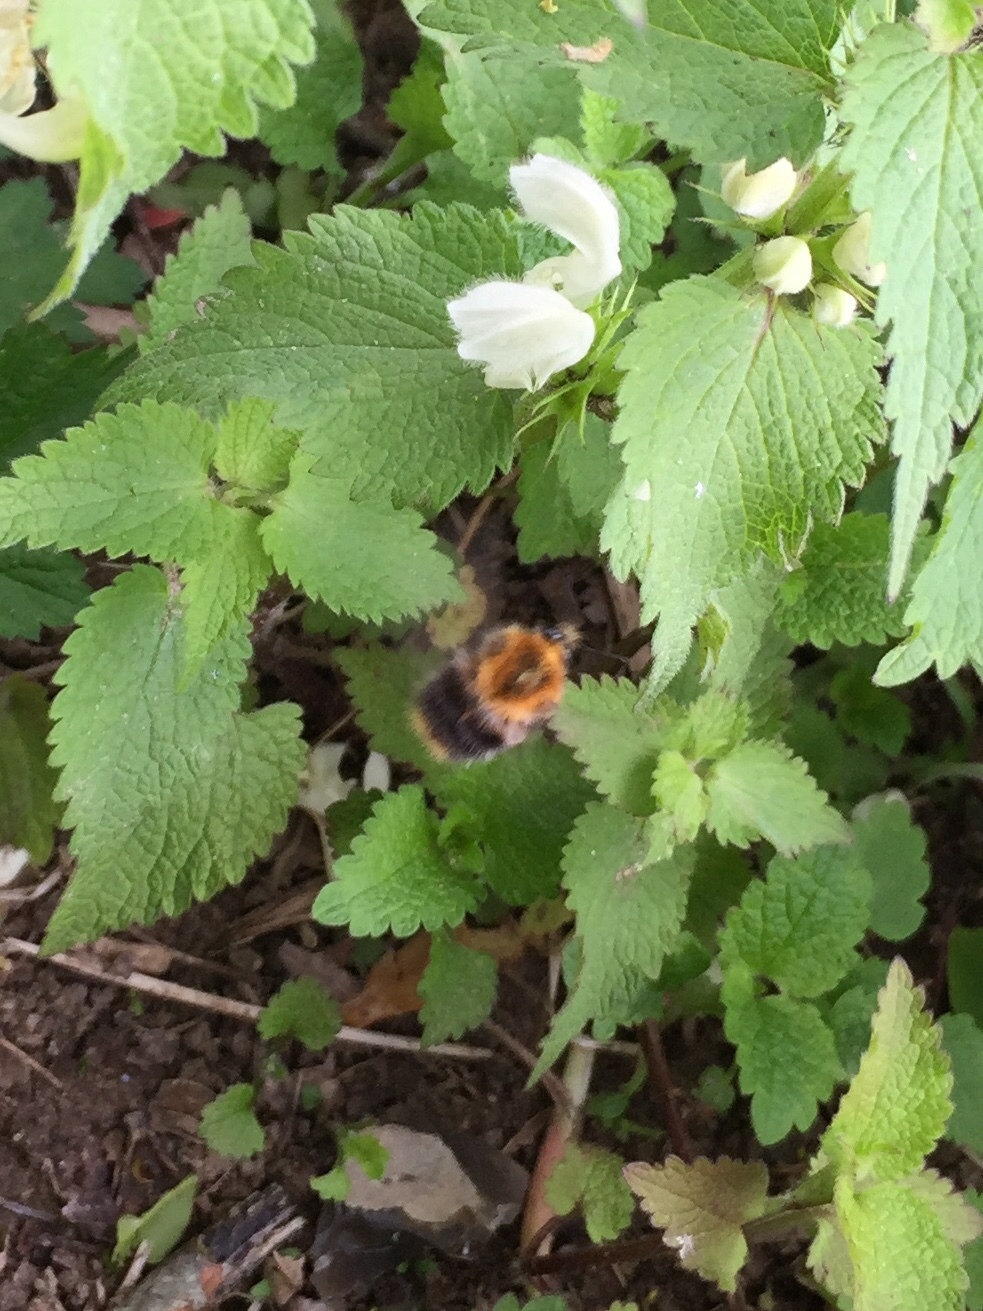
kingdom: Animalia
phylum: Arthropoda
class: Insecta
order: Hymenoptera
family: Apidae
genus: Bombus
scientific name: Bombus hypnorum
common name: New garden bumblebee
